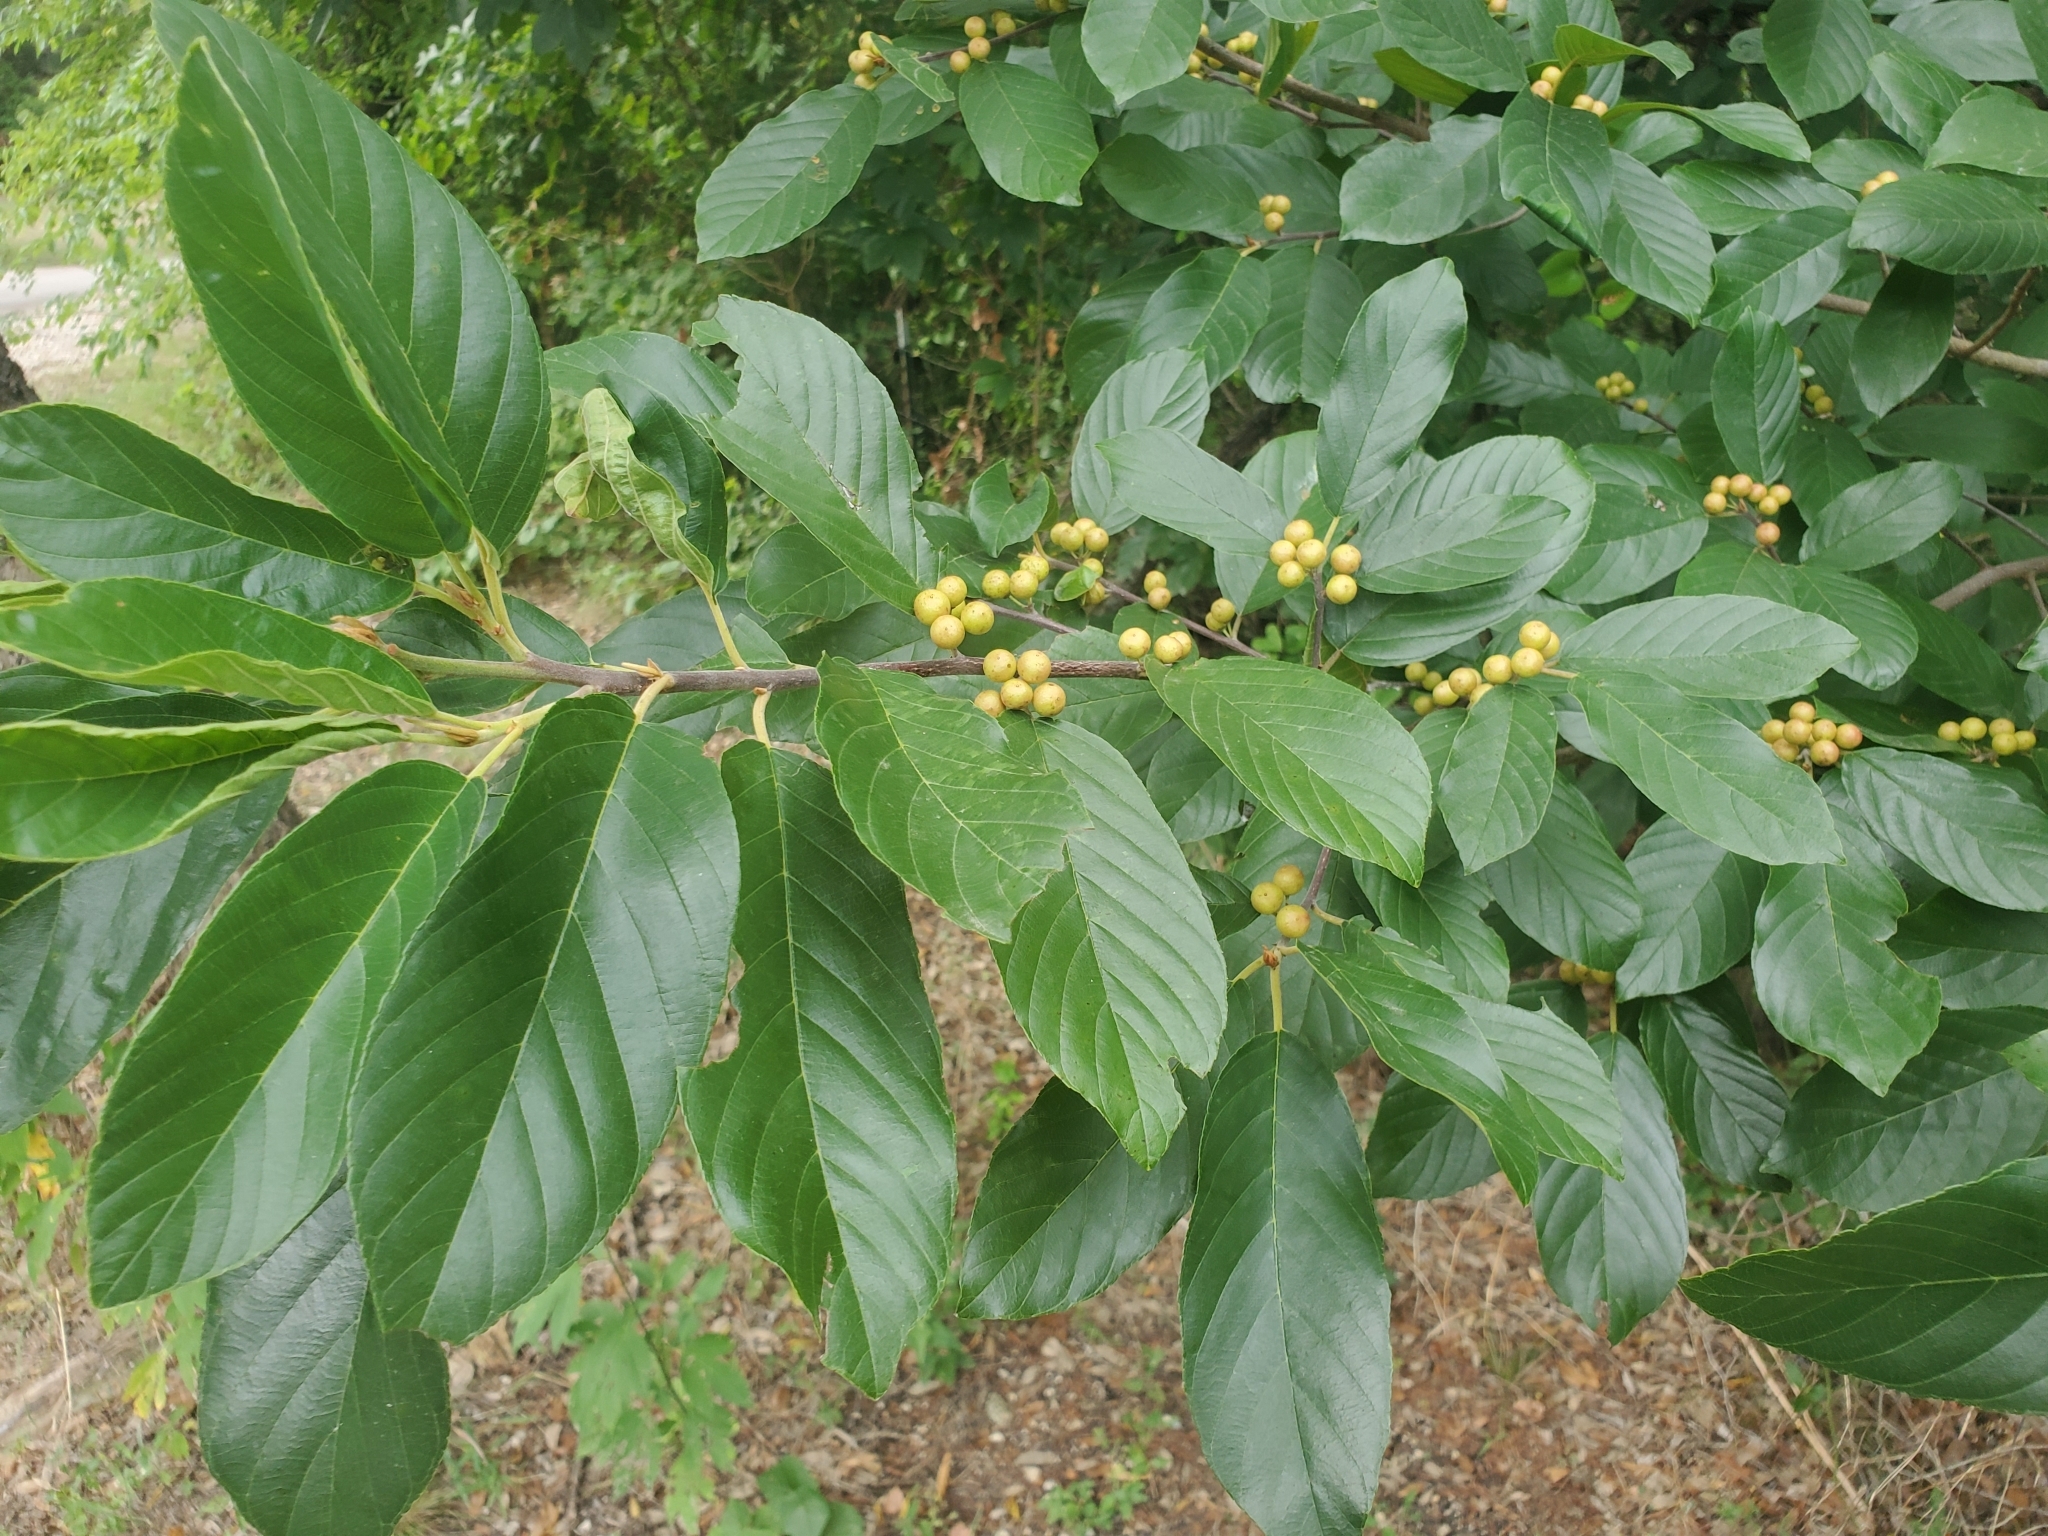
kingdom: Plantae
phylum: Tracheophyta
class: Magnoliopsida
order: Rosales
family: Rhamnaceae
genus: Frangula
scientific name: Frangula caroliniana
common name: Carolina buckthorn
